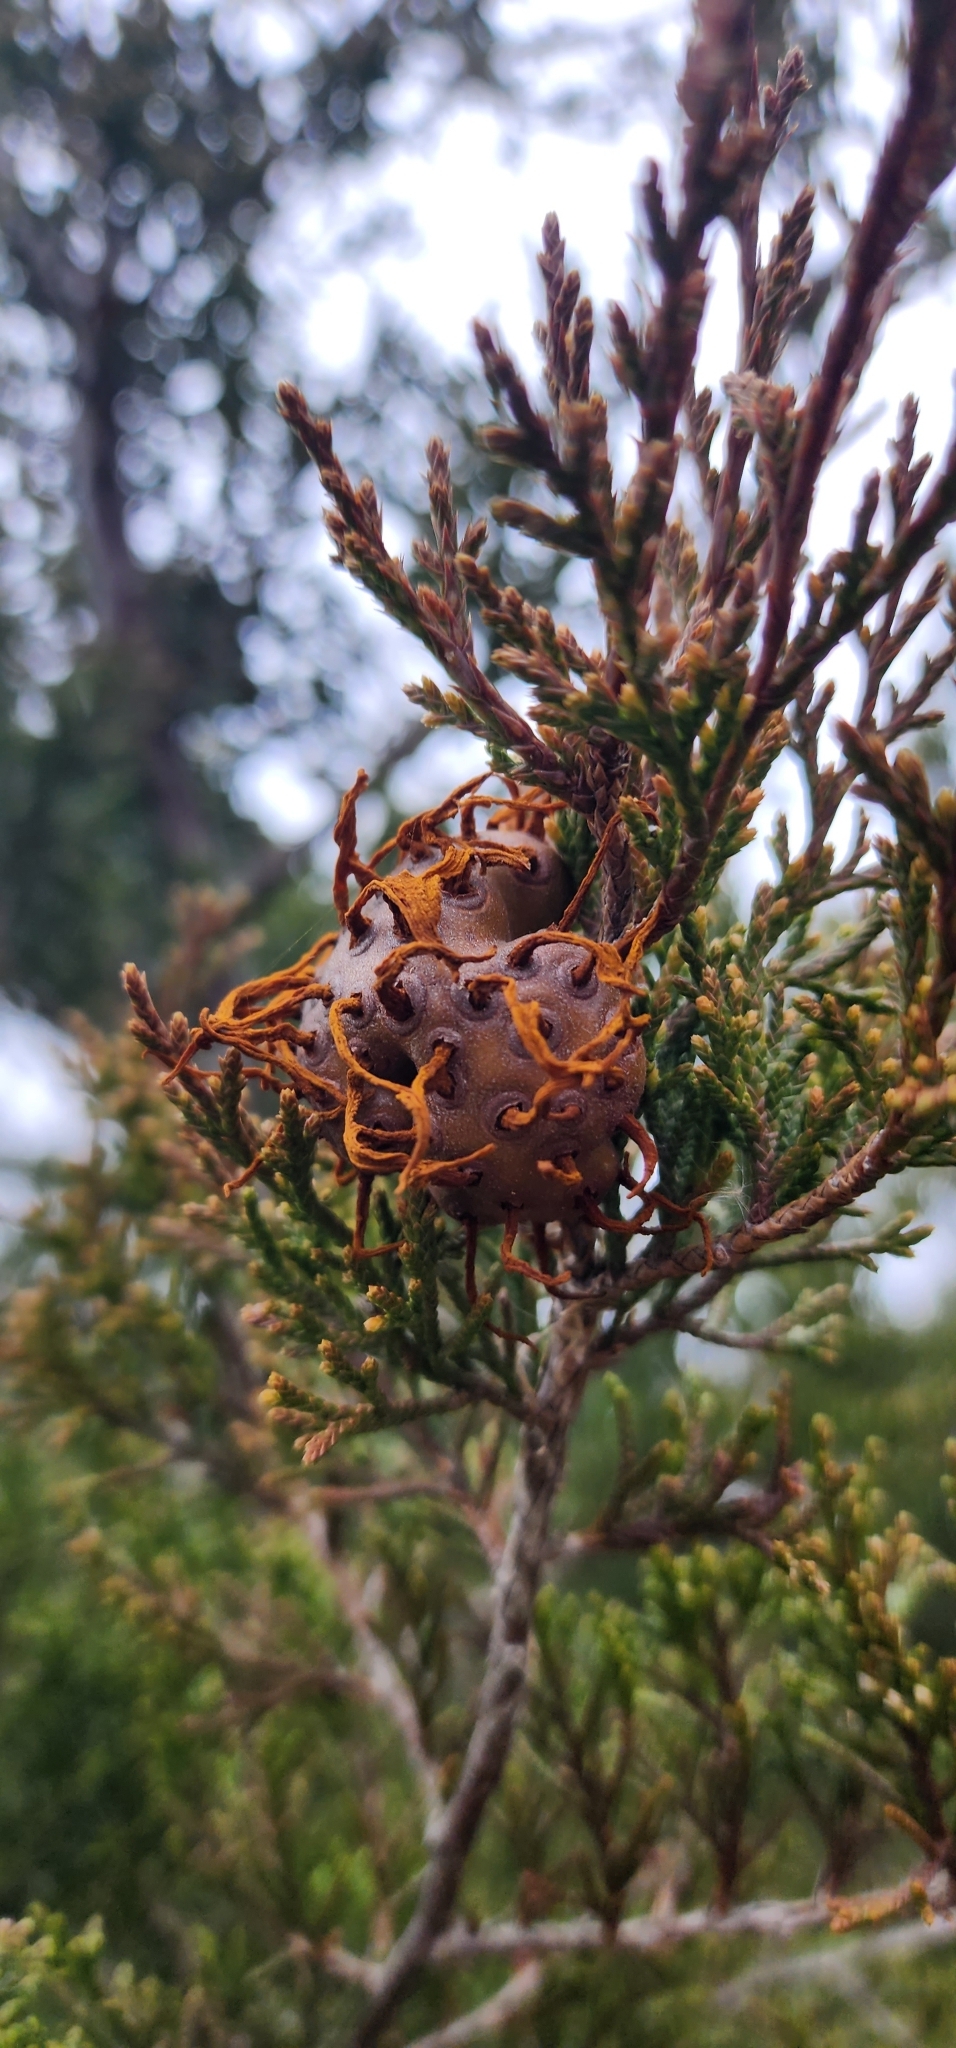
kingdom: Fungi
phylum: Basidiomycota
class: Pucciniomycetes
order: Pucciniales
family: Gymnosporangiaceae
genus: Gymnosporangium
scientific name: Gymnosporangium juniperi-virginianae
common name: Juniper-apple rust
